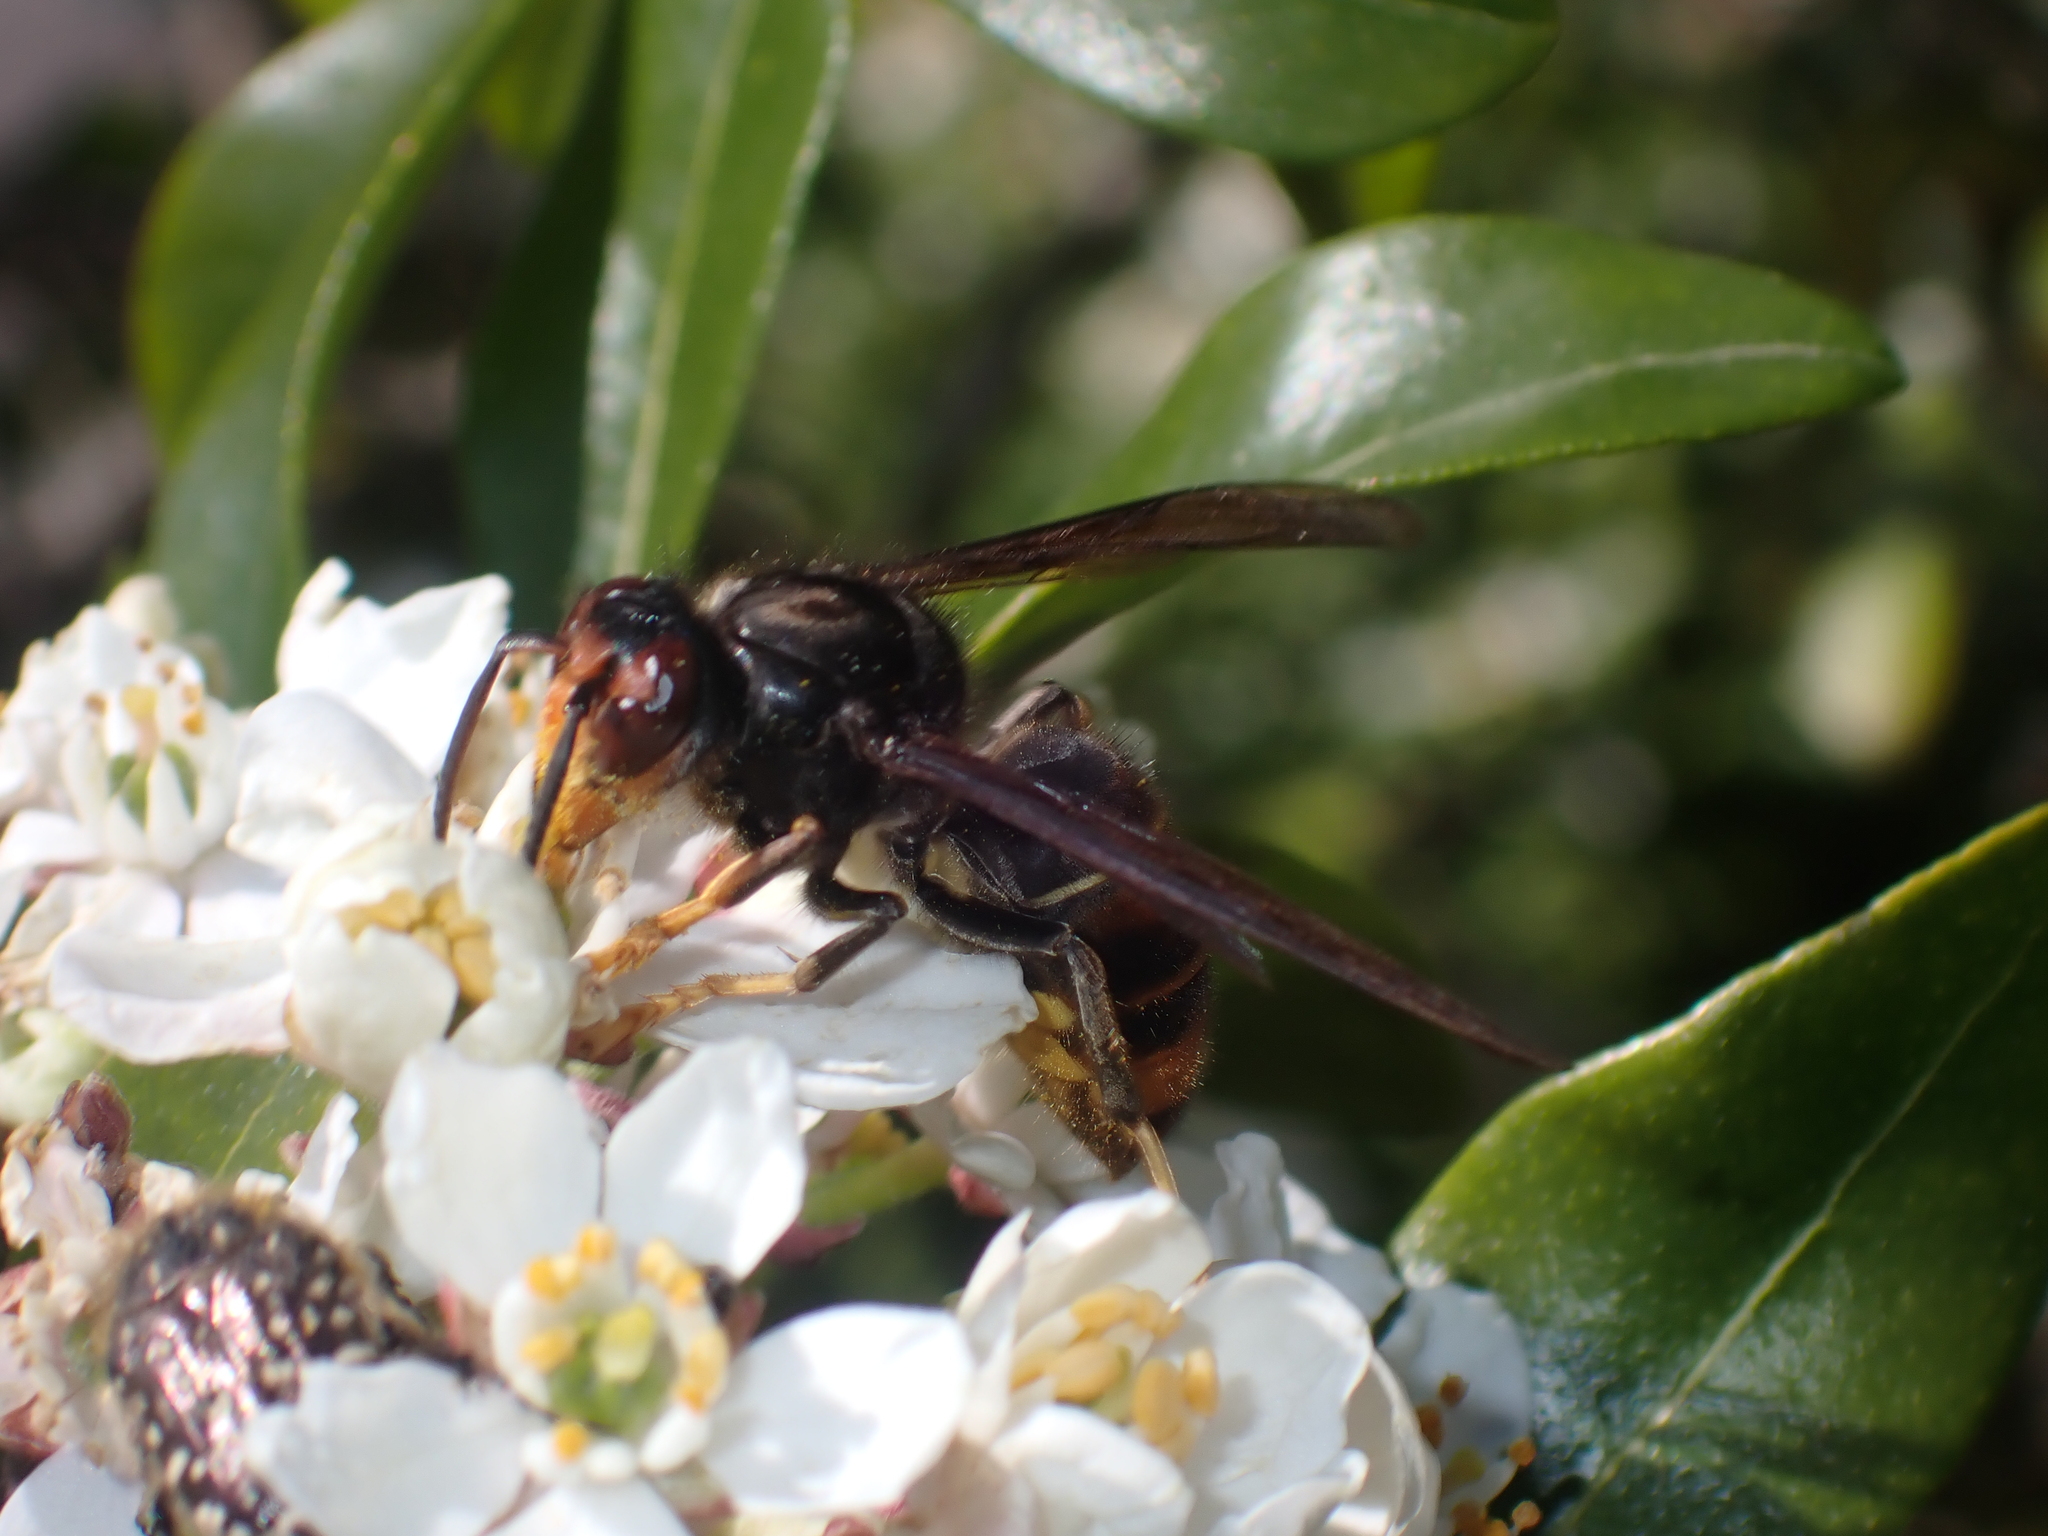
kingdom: Animalia
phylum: Arthropoda
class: Insecta
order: Hymenoptera
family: Vespidae
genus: Vespa
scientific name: Vespa velutina
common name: Asian hornet
